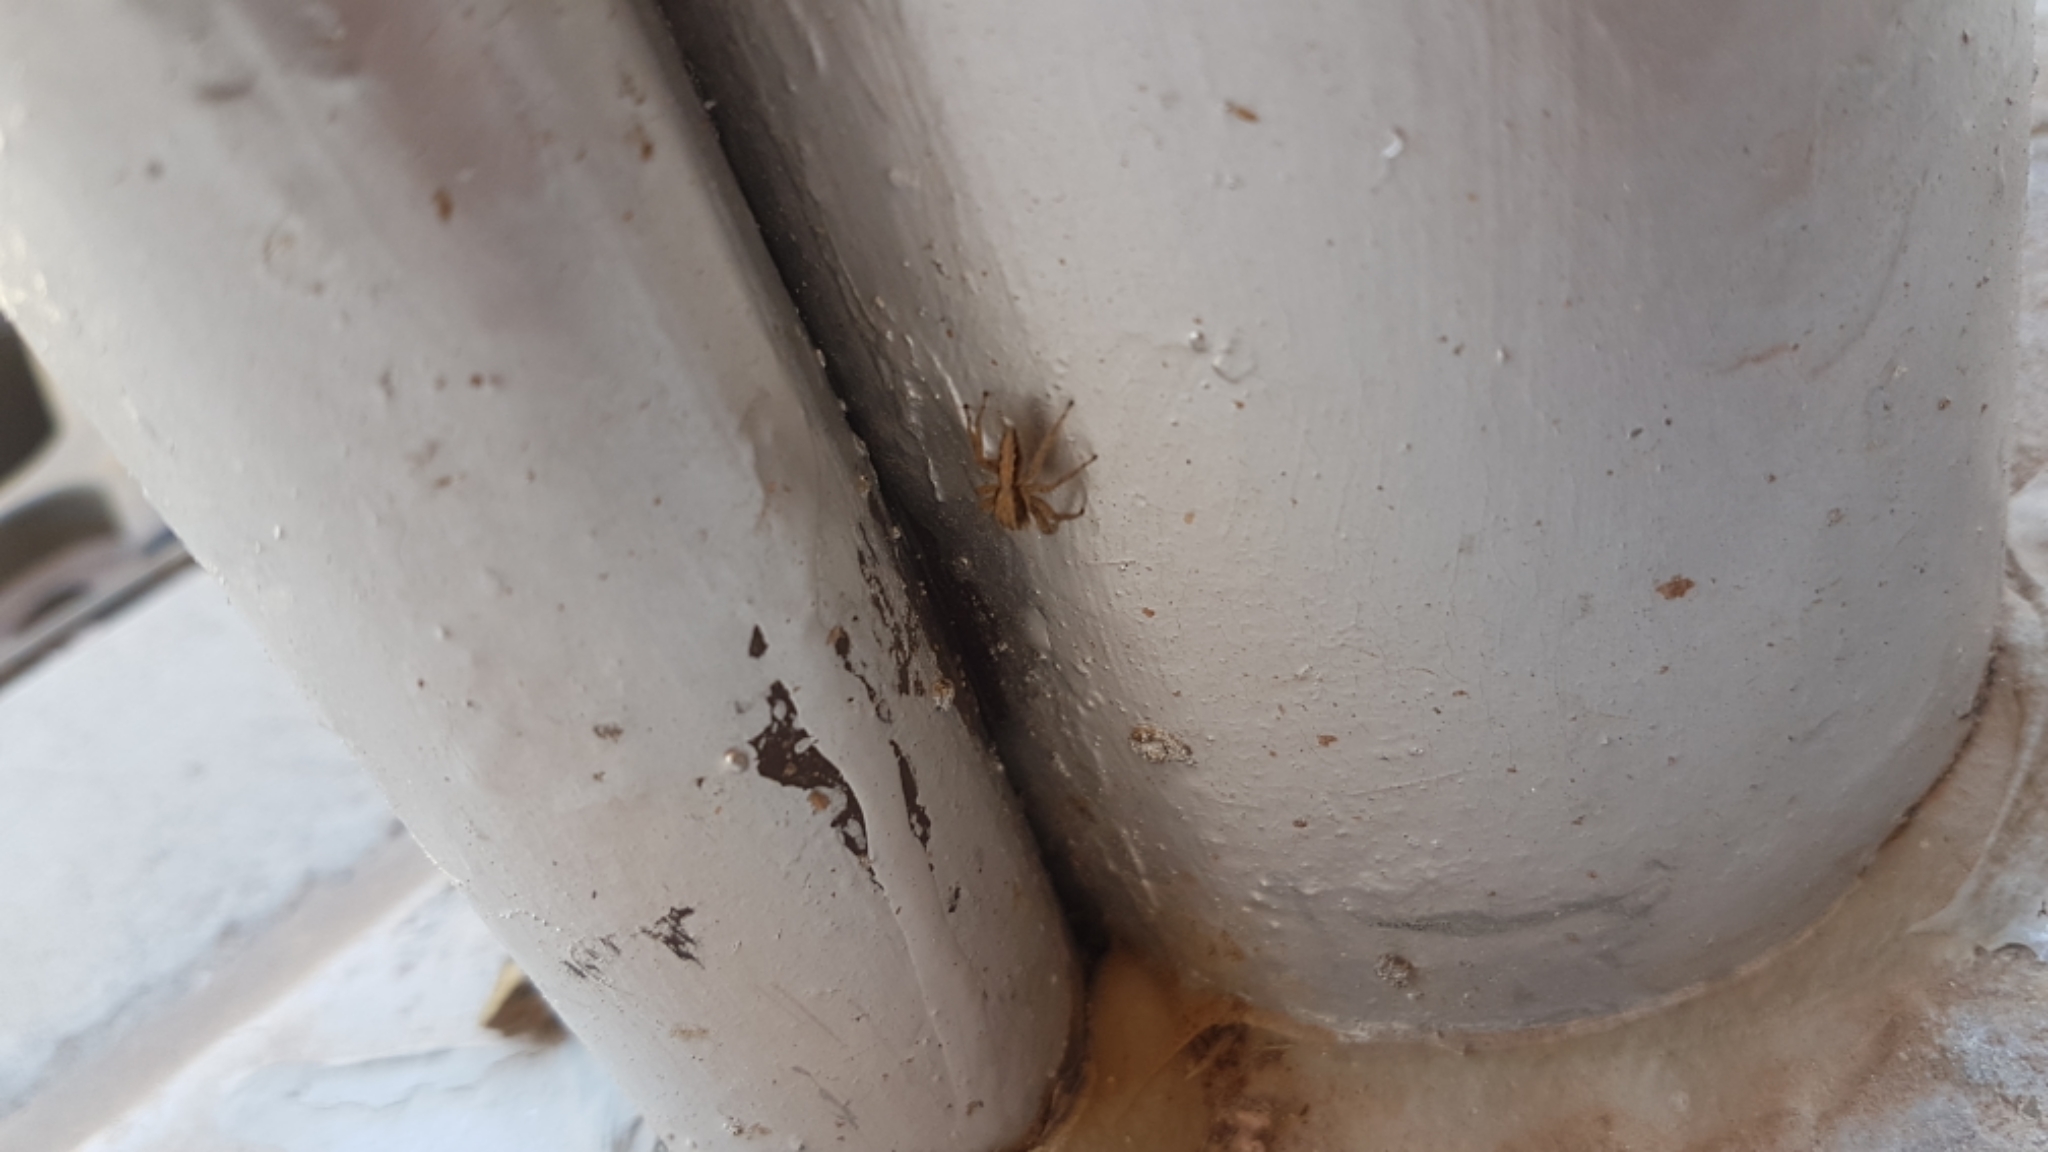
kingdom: Animalia
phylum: Arthropoda
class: Arachnida
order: Araneae
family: Salticidae
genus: Platycryptus
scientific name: Platycryptus californicus
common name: Jumping spiders
